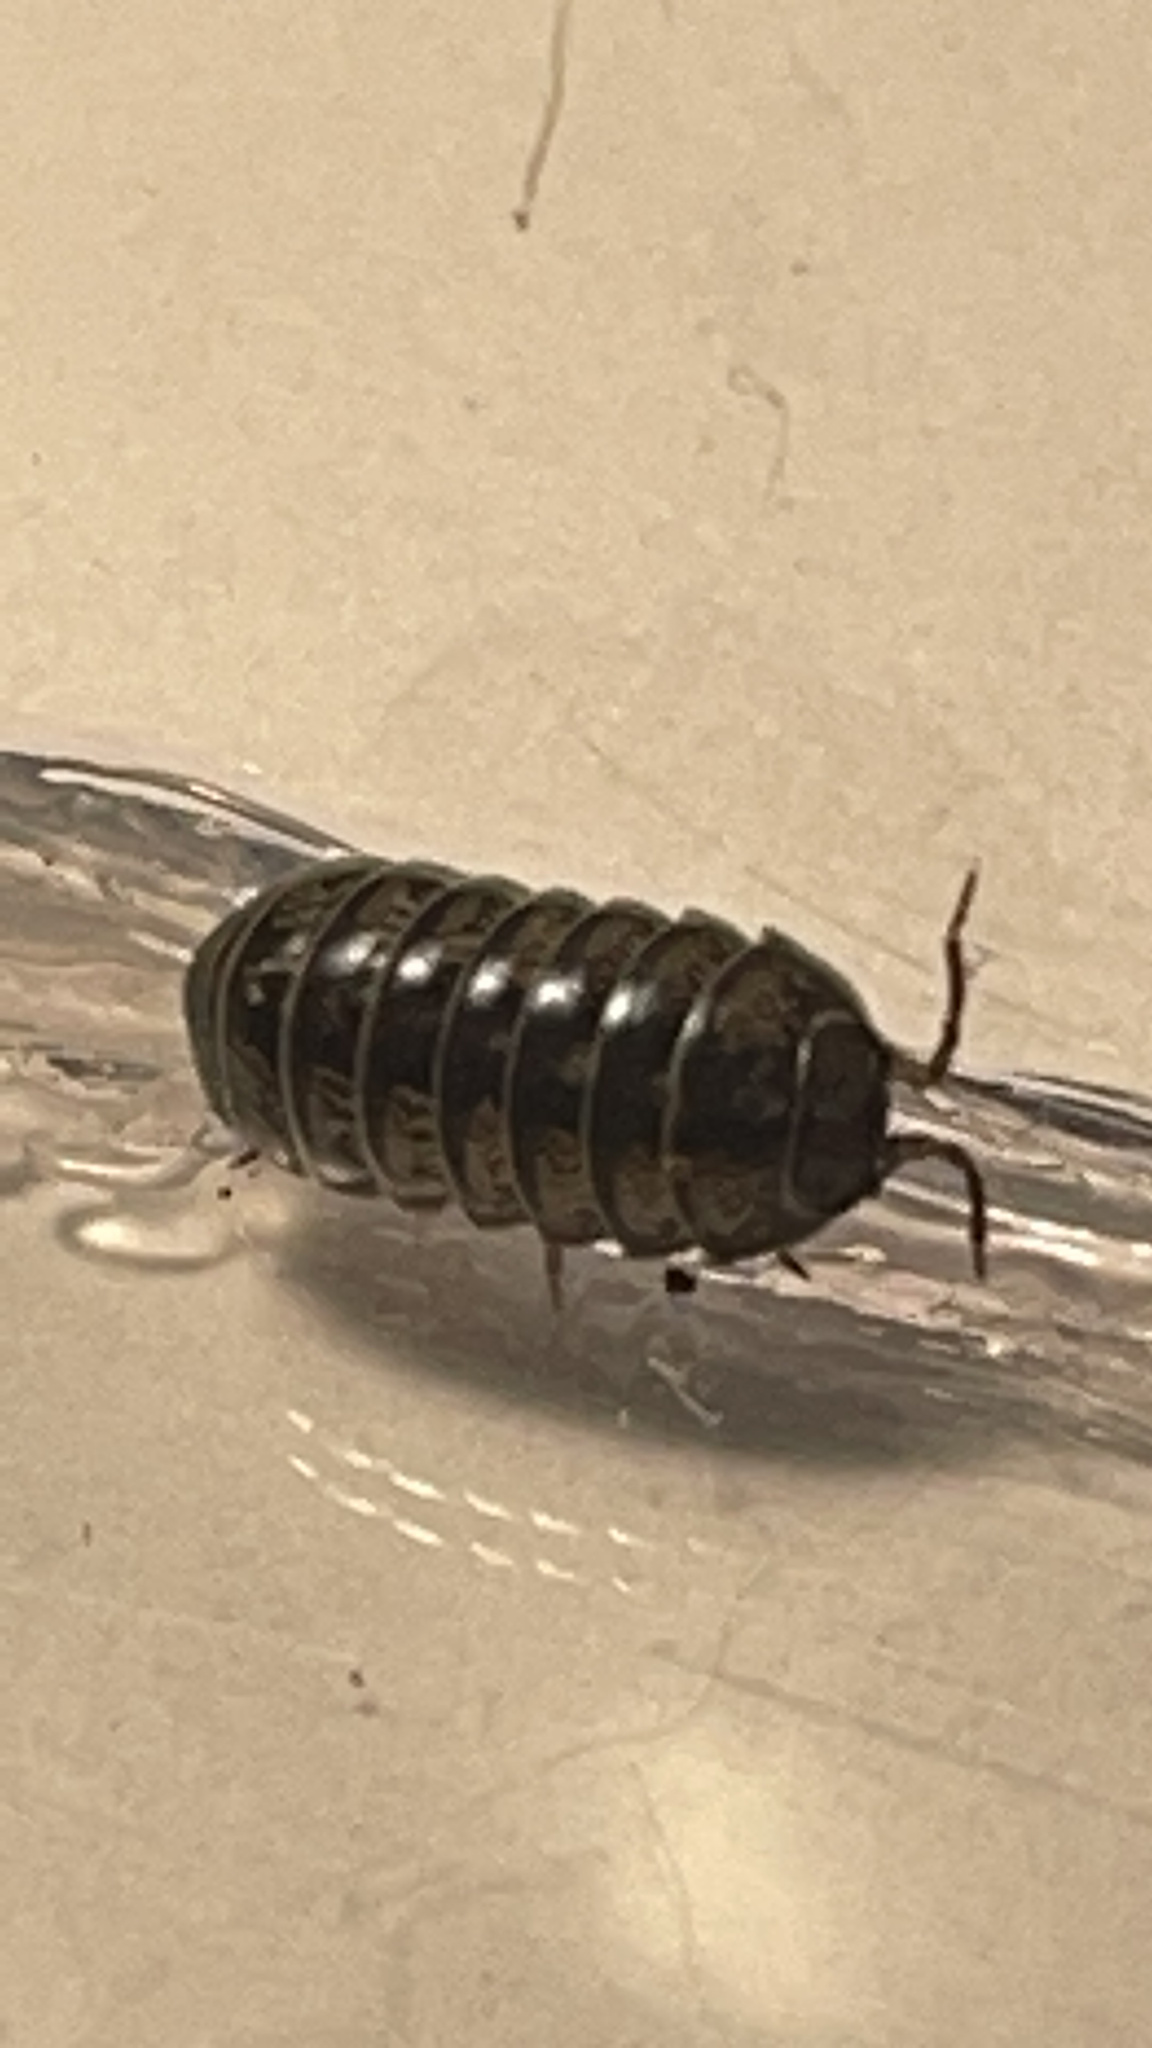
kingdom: Animalia
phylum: Arthropoda
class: Malacostraca
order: Isopoda
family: Armadillidiidae
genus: Armadillidium
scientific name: Armadillidium vulgare
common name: Common pill woodlouse
